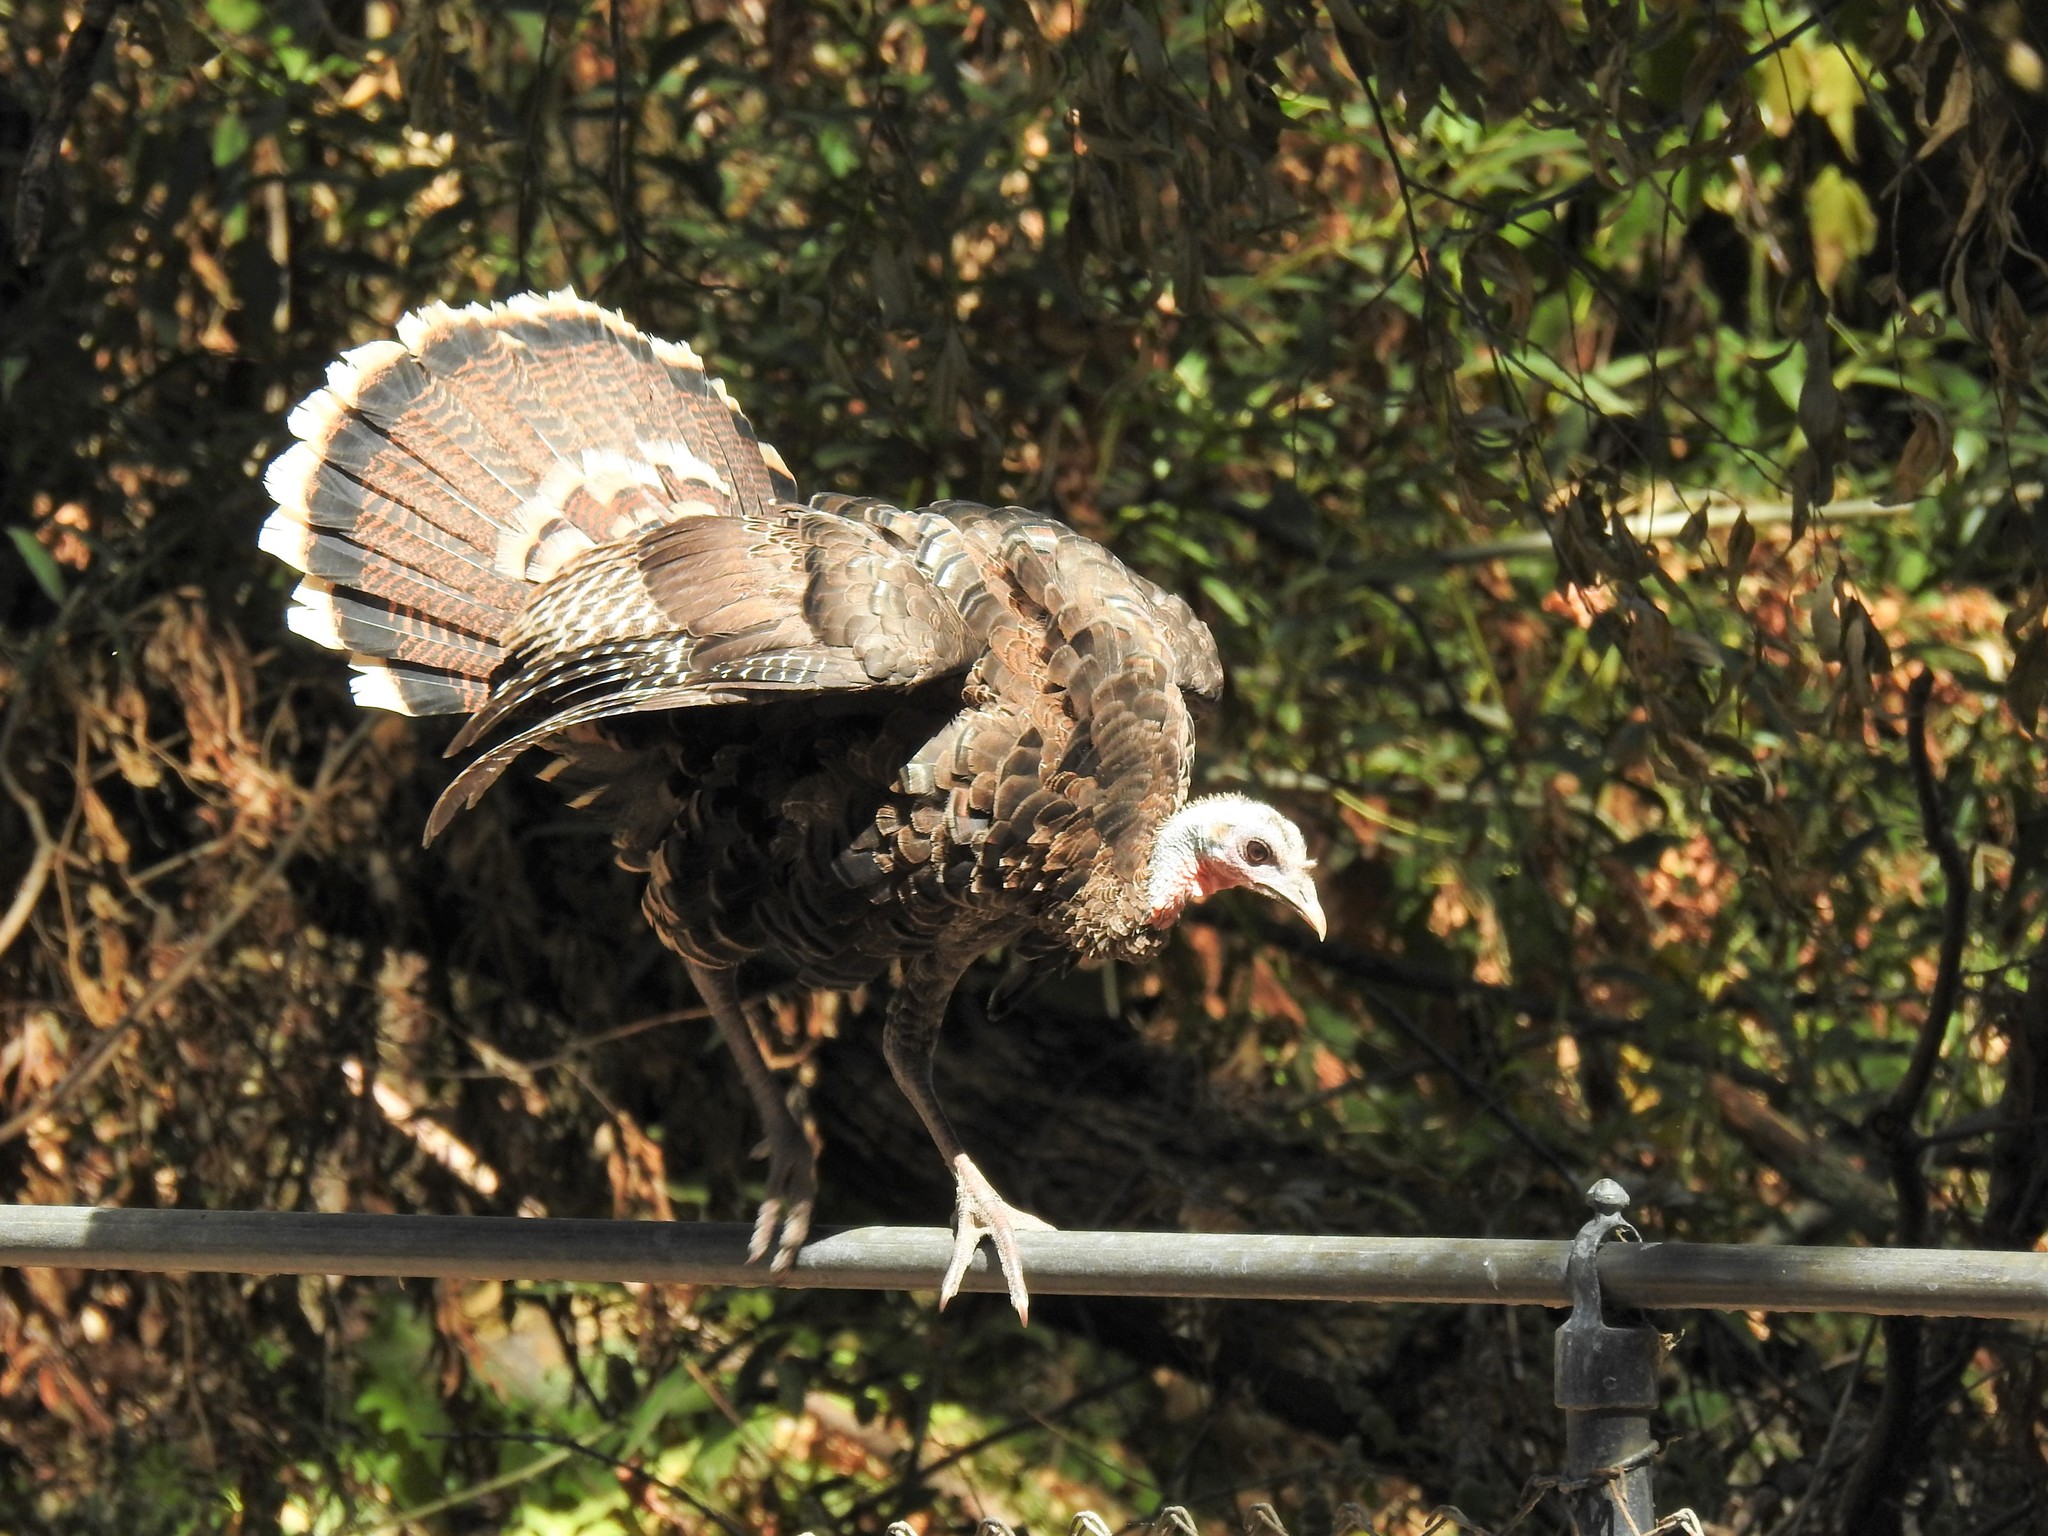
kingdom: Animalia
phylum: Chordata
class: Aves
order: Galliformes
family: Phasianidae
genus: Meleagris
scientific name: Meleagris gallopavo
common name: Wild turkey
